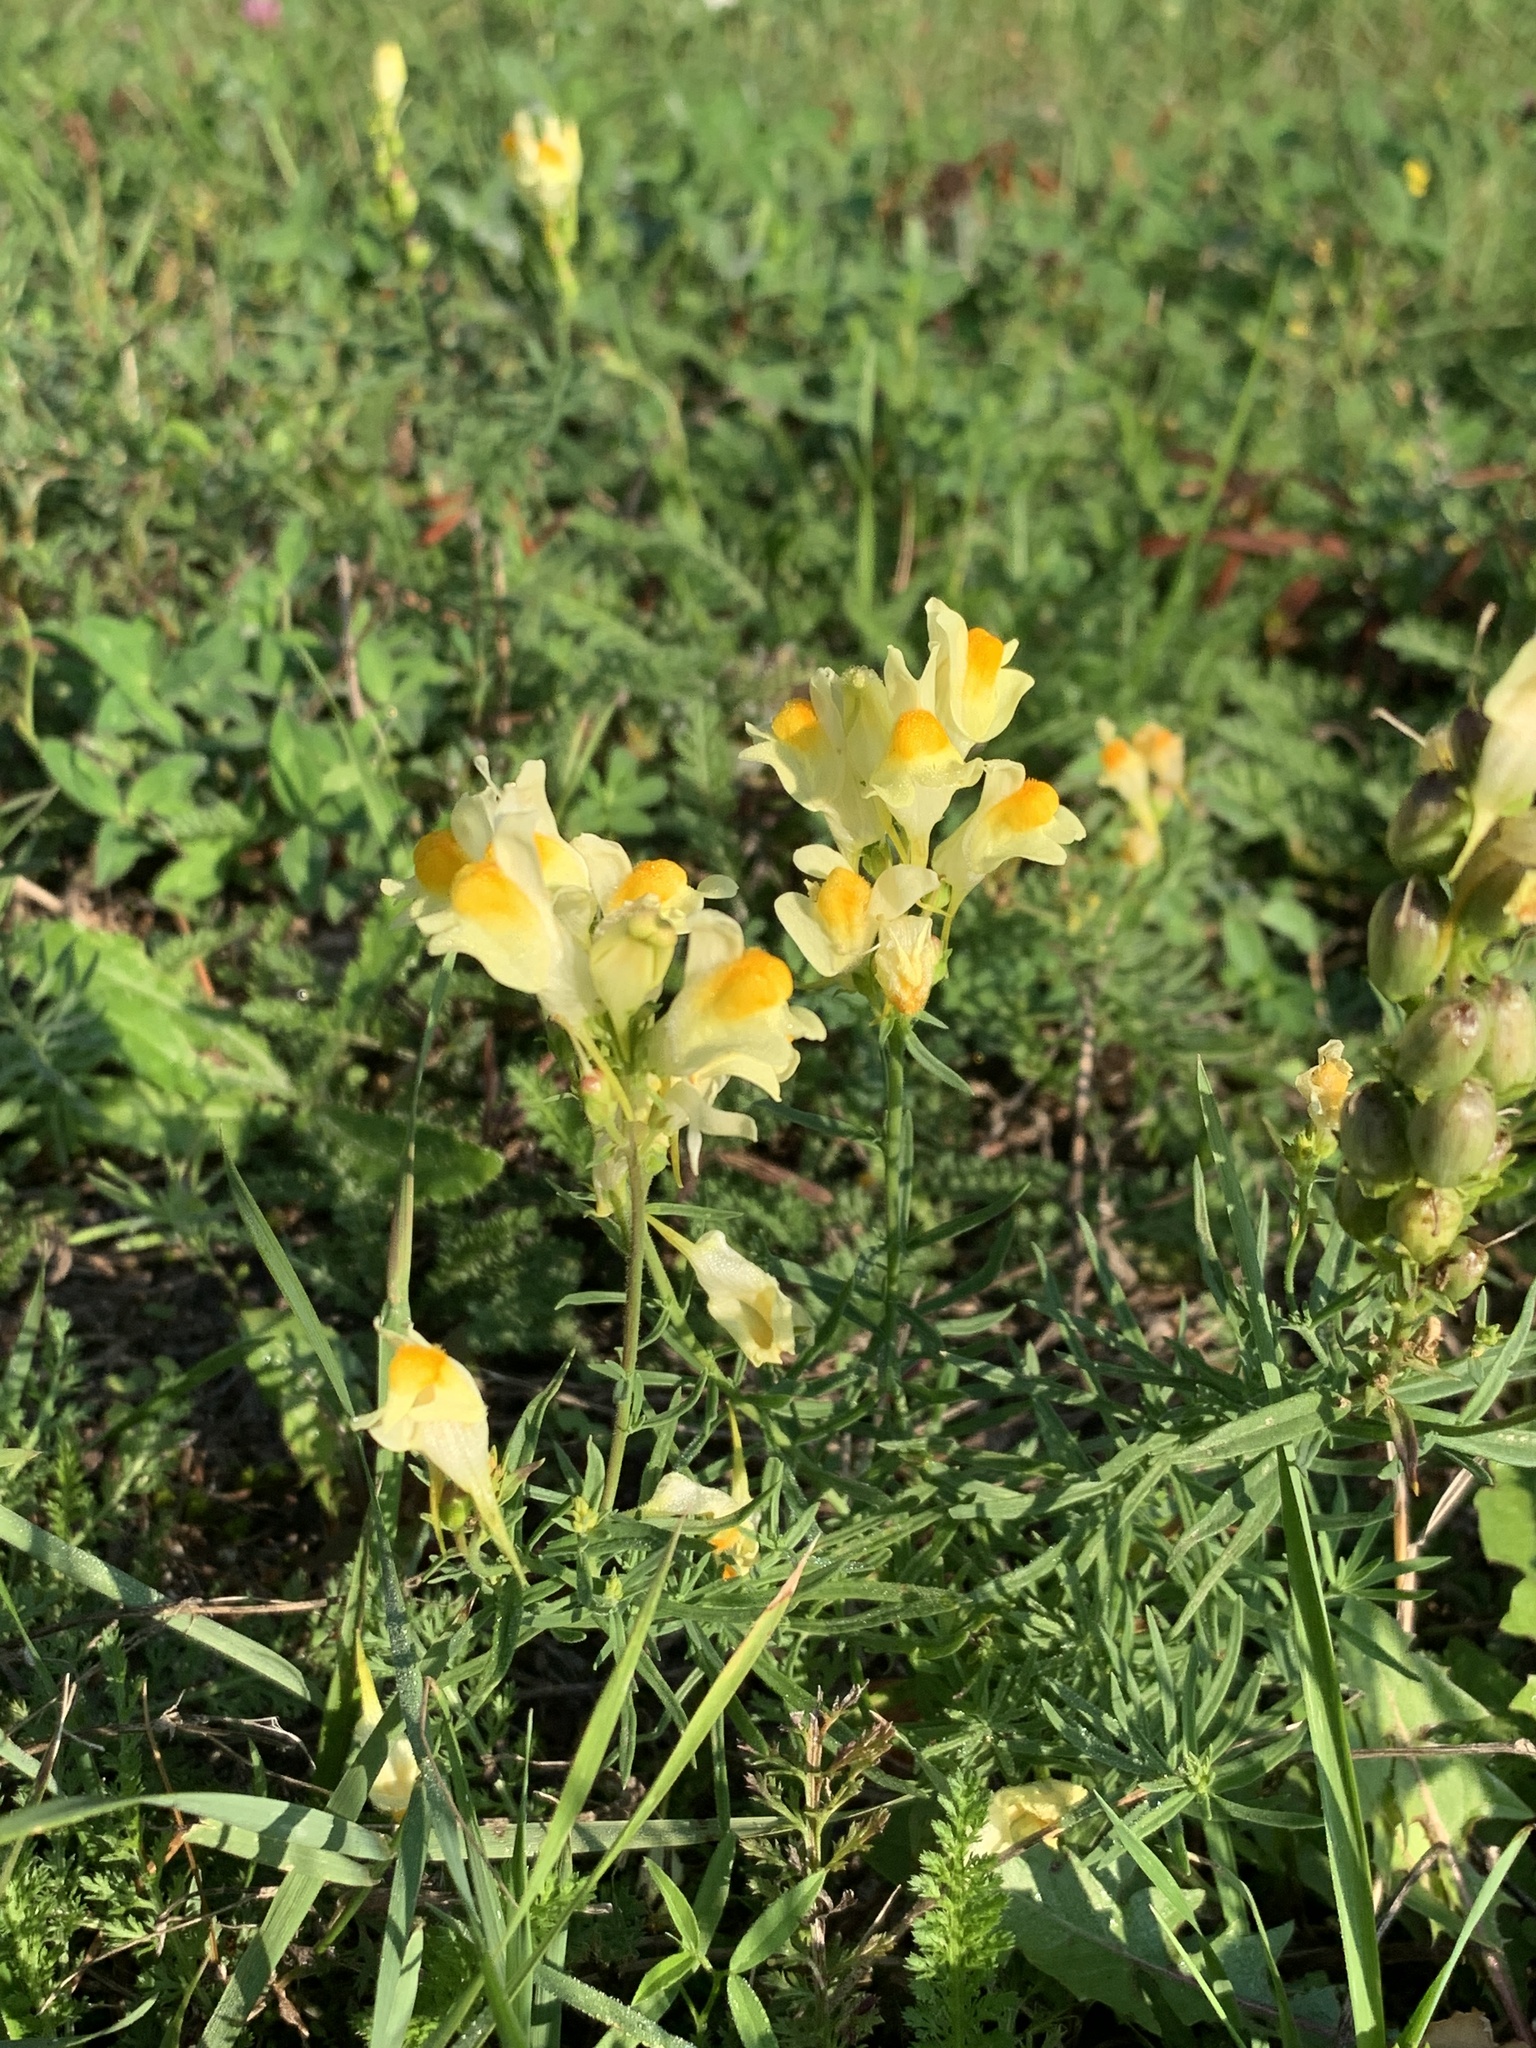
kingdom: Plantae
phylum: Tracheophyta
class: Magnoliopsida
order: Lamiales
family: Plantaginaceae
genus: Linaria
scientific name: Linaria vulgaris
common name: Butter and eggs
